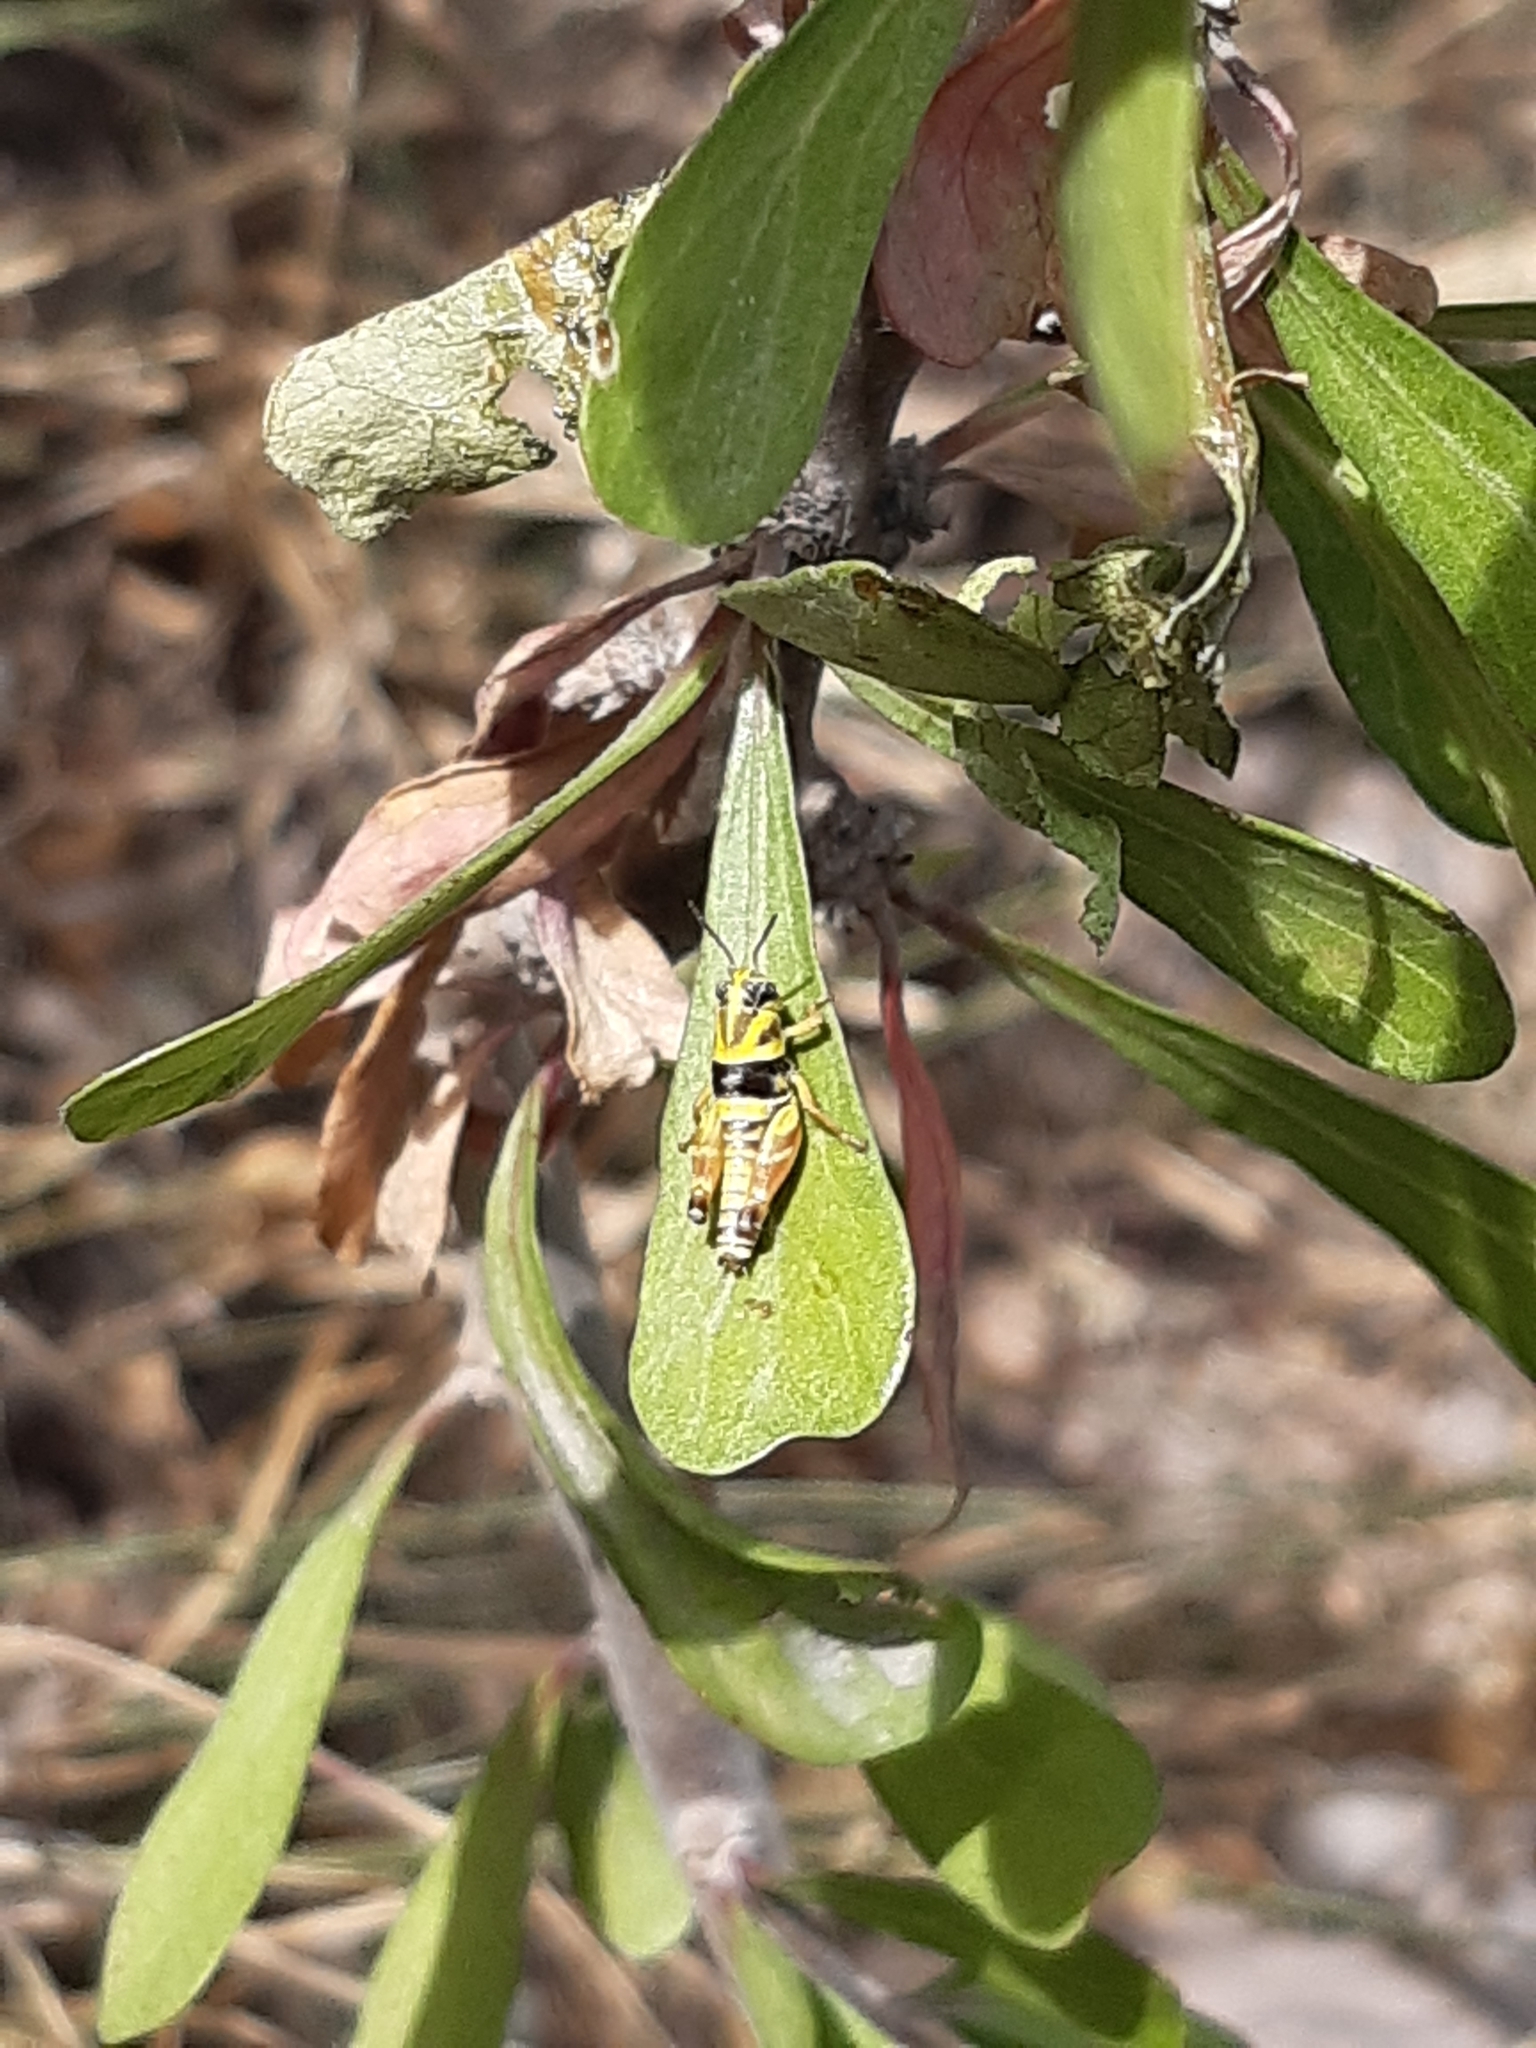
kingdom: Animalia
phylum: Arthropoda
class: Insecta
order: Orthoptera
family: Acrididae
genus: Aidemona
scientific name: Aidemona azteca
